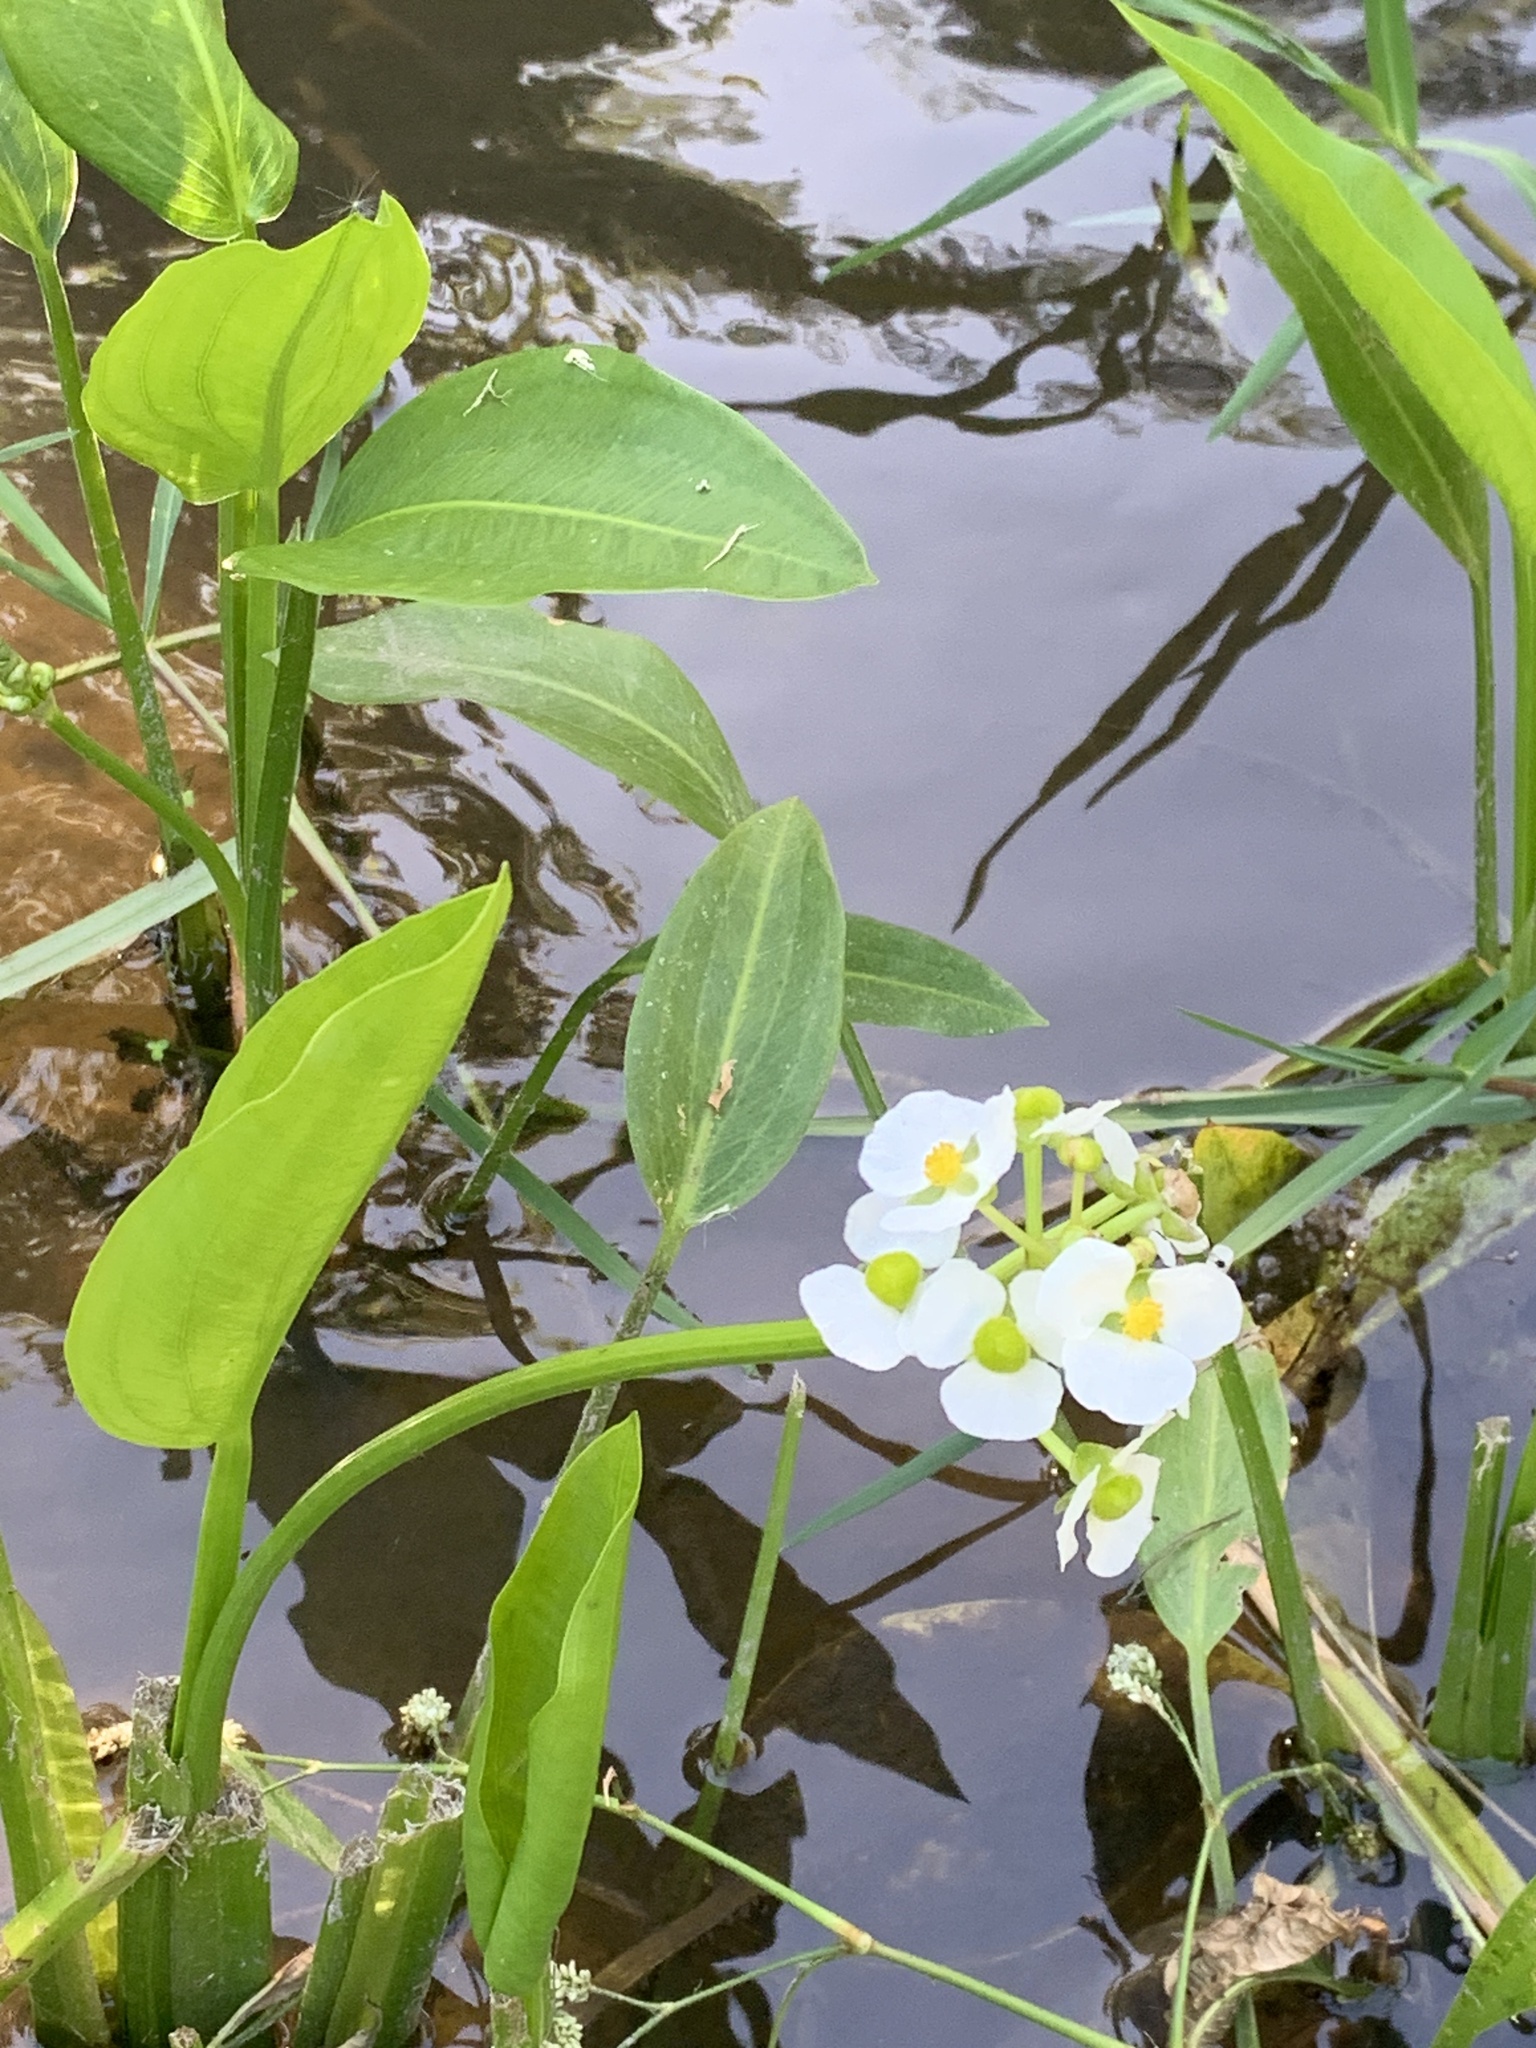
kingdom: Plantae
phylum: Tracheophyta
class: Liliopsida
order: Alismatales
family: Alismataceae
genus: Sagittaria
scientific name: Sagittaria platyphylla
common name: Broad-leaf arrowhead
